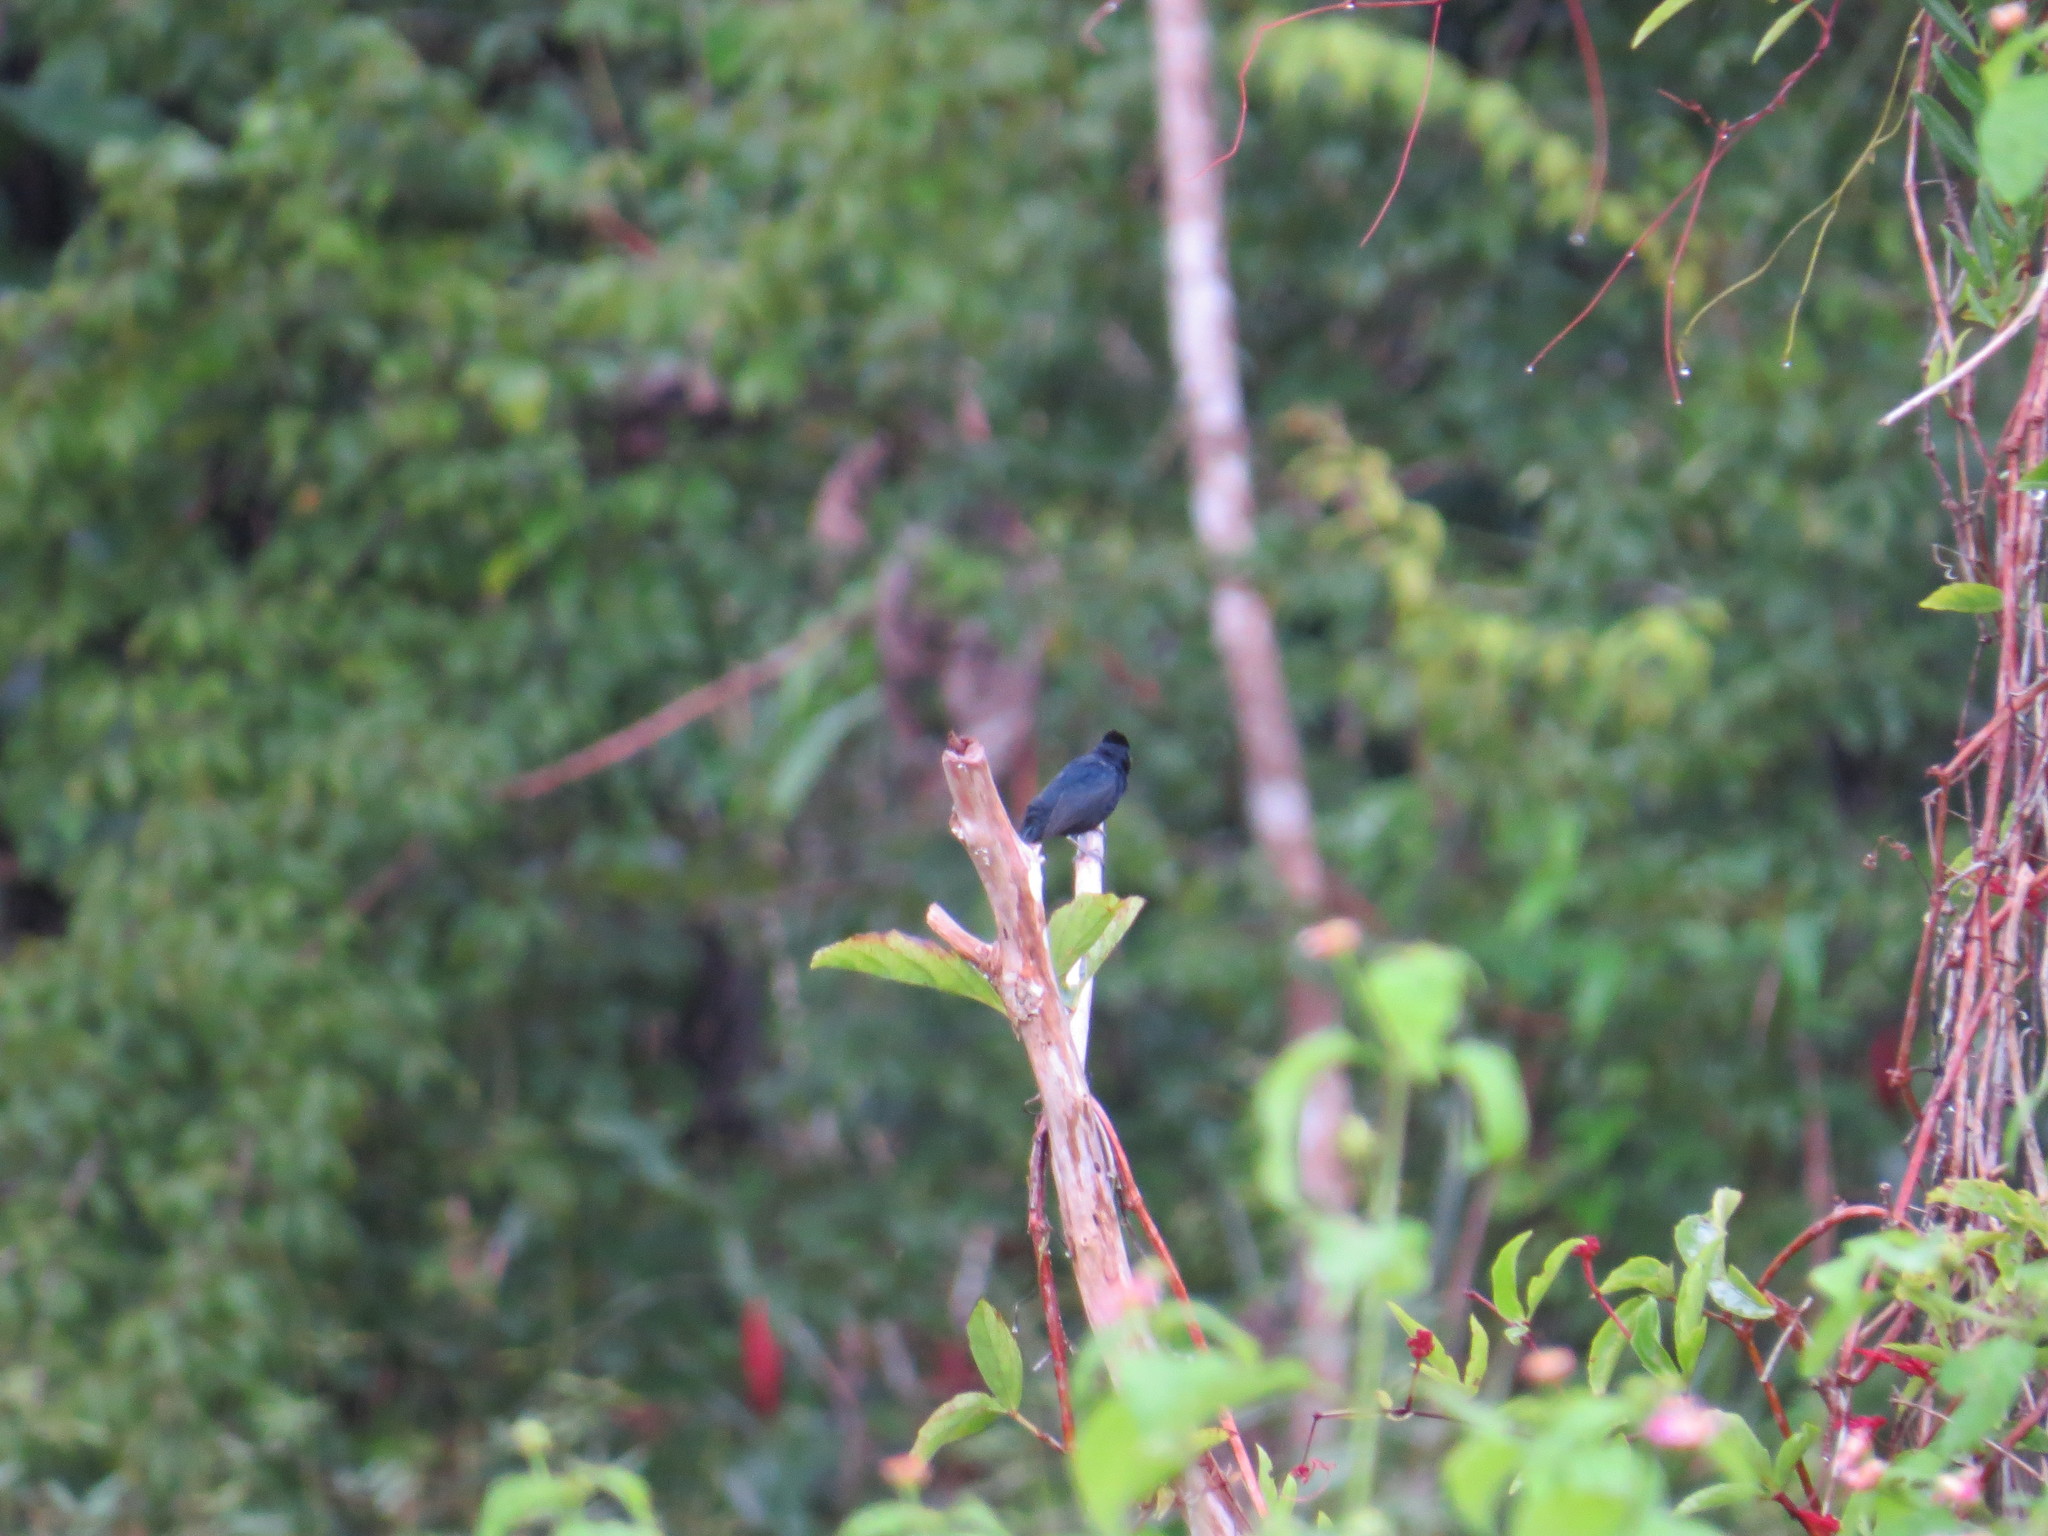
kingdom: Animalia
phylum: Chordata
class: Aves
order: Passeriformes
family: Thraupidae
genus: Volatinia
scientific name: Volatinia jacarina
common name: Blue-black grassquit
